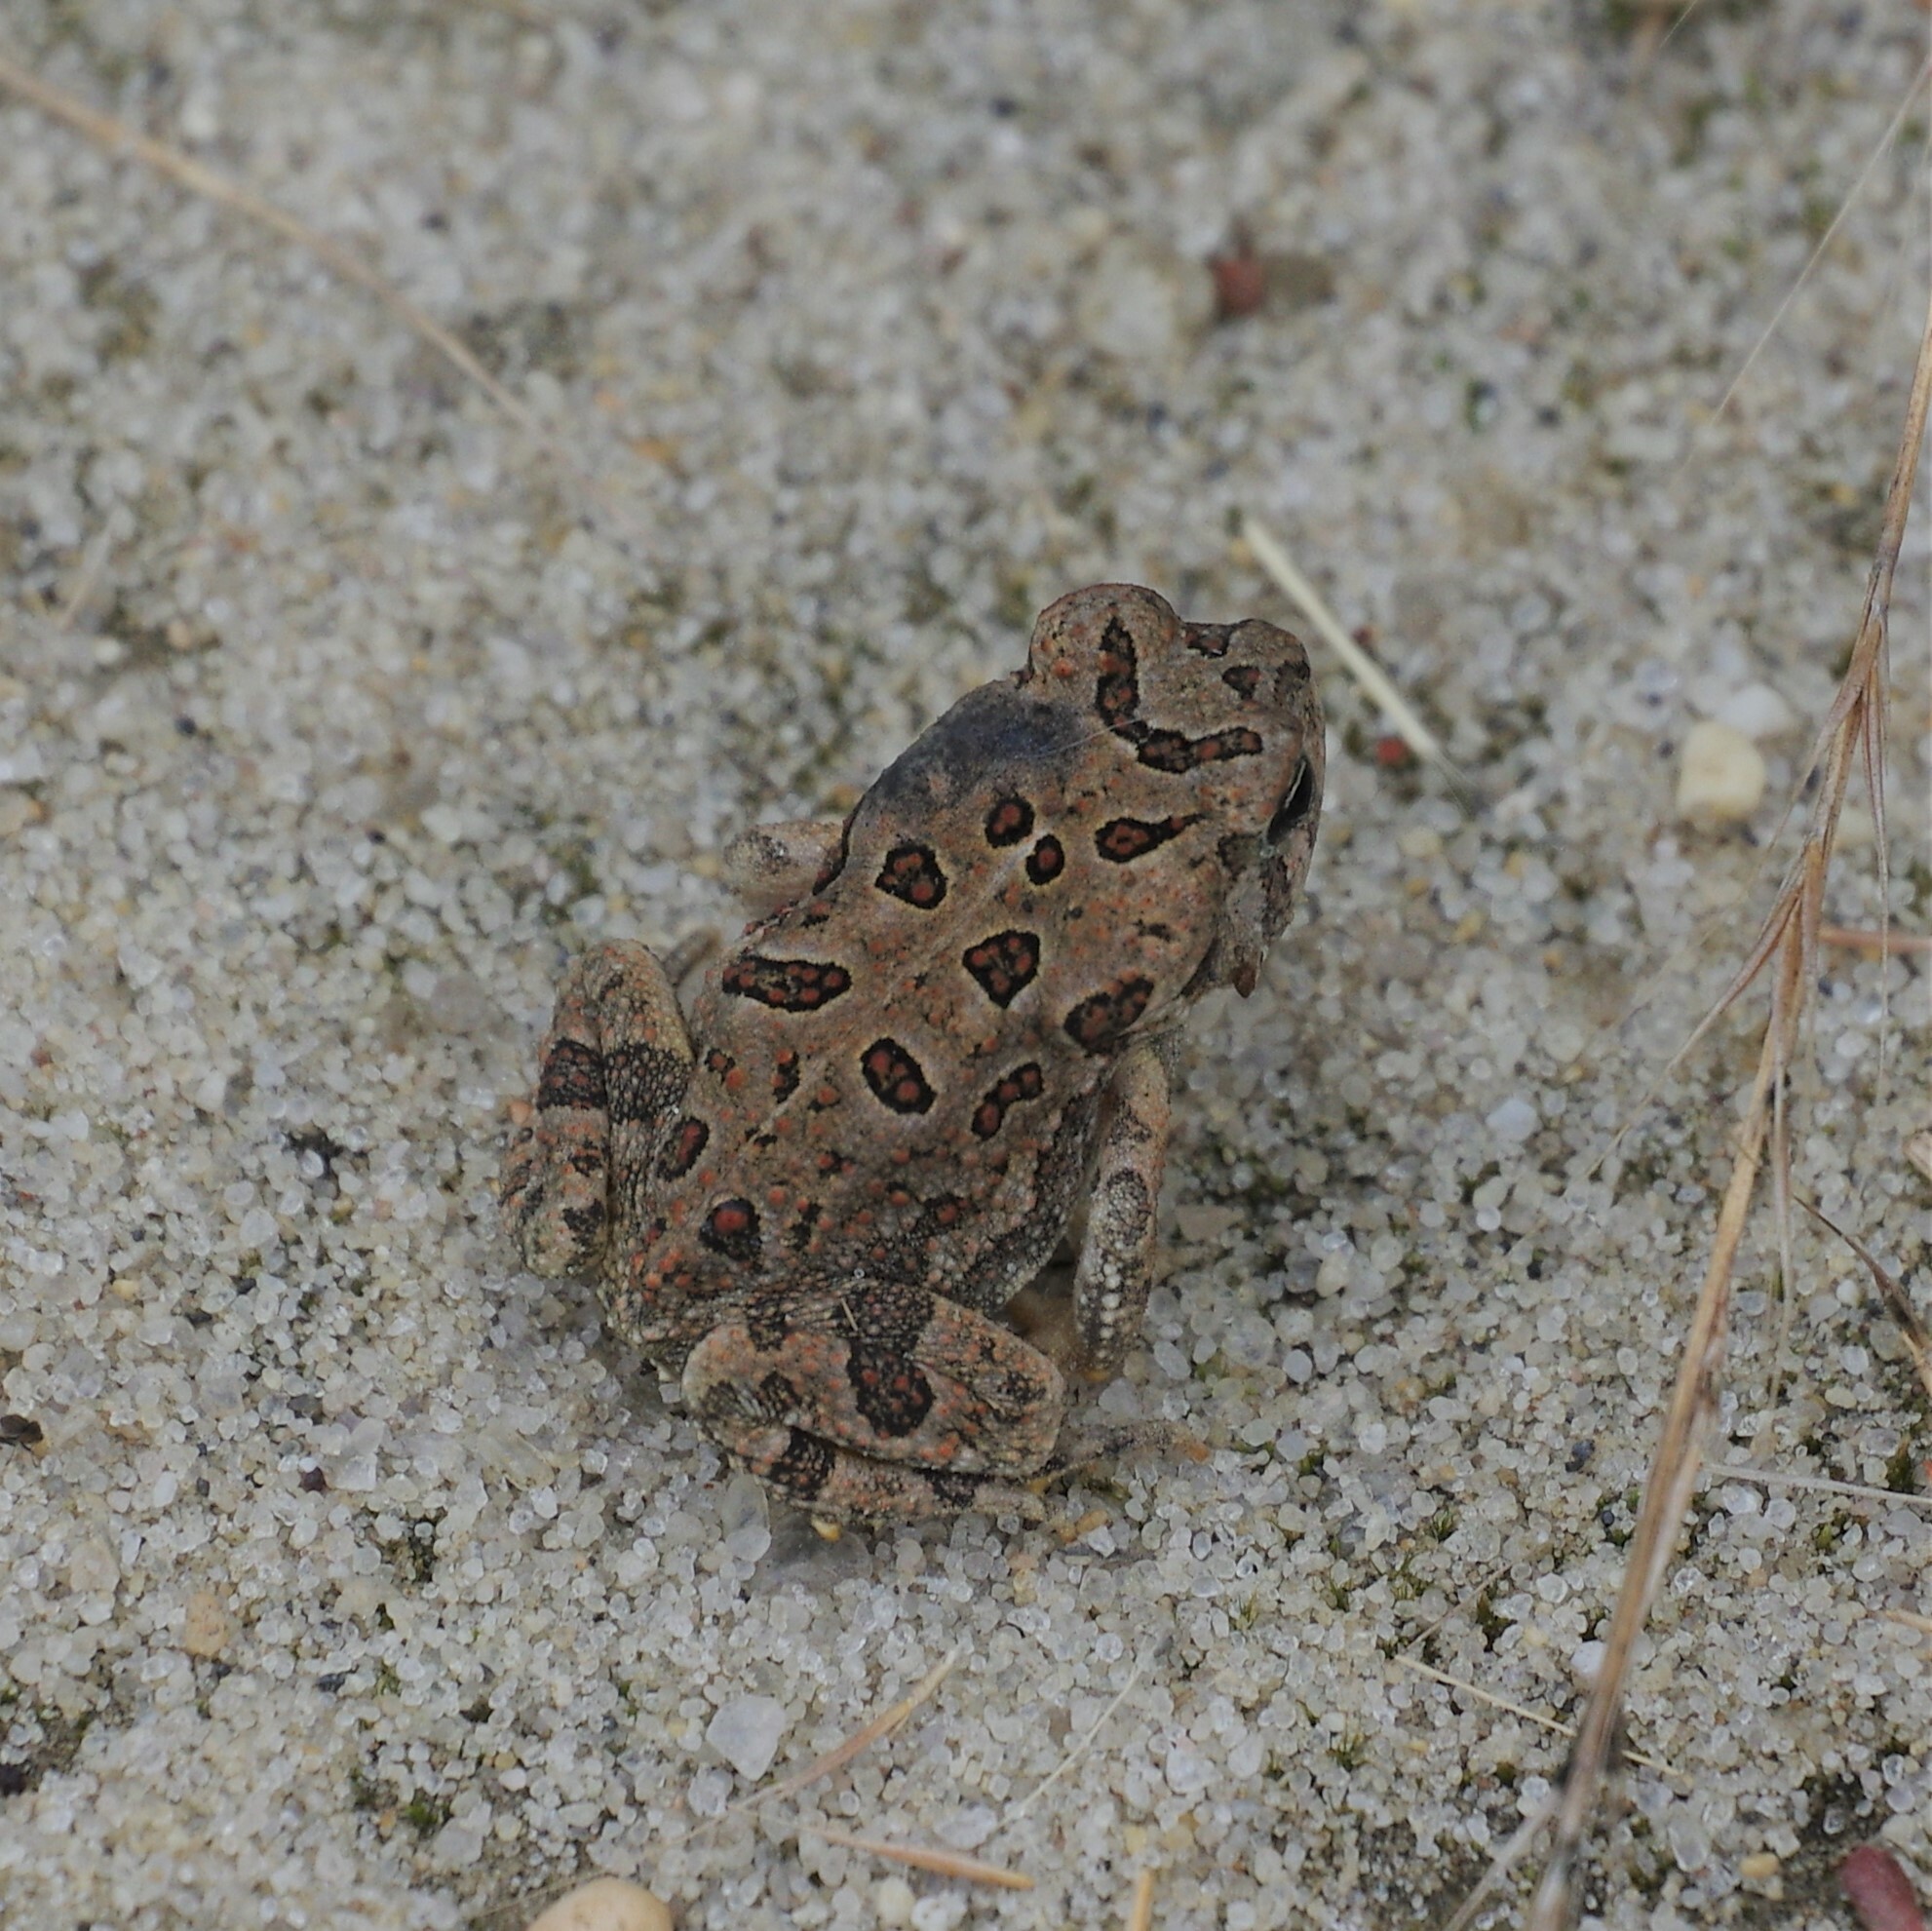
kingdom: Animalia
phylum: Chordata
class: Amphibia
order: Anura
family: Bufonidae
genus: Anaxyrus
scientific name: Anaxyrus fowleri
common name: Fowler's toad
